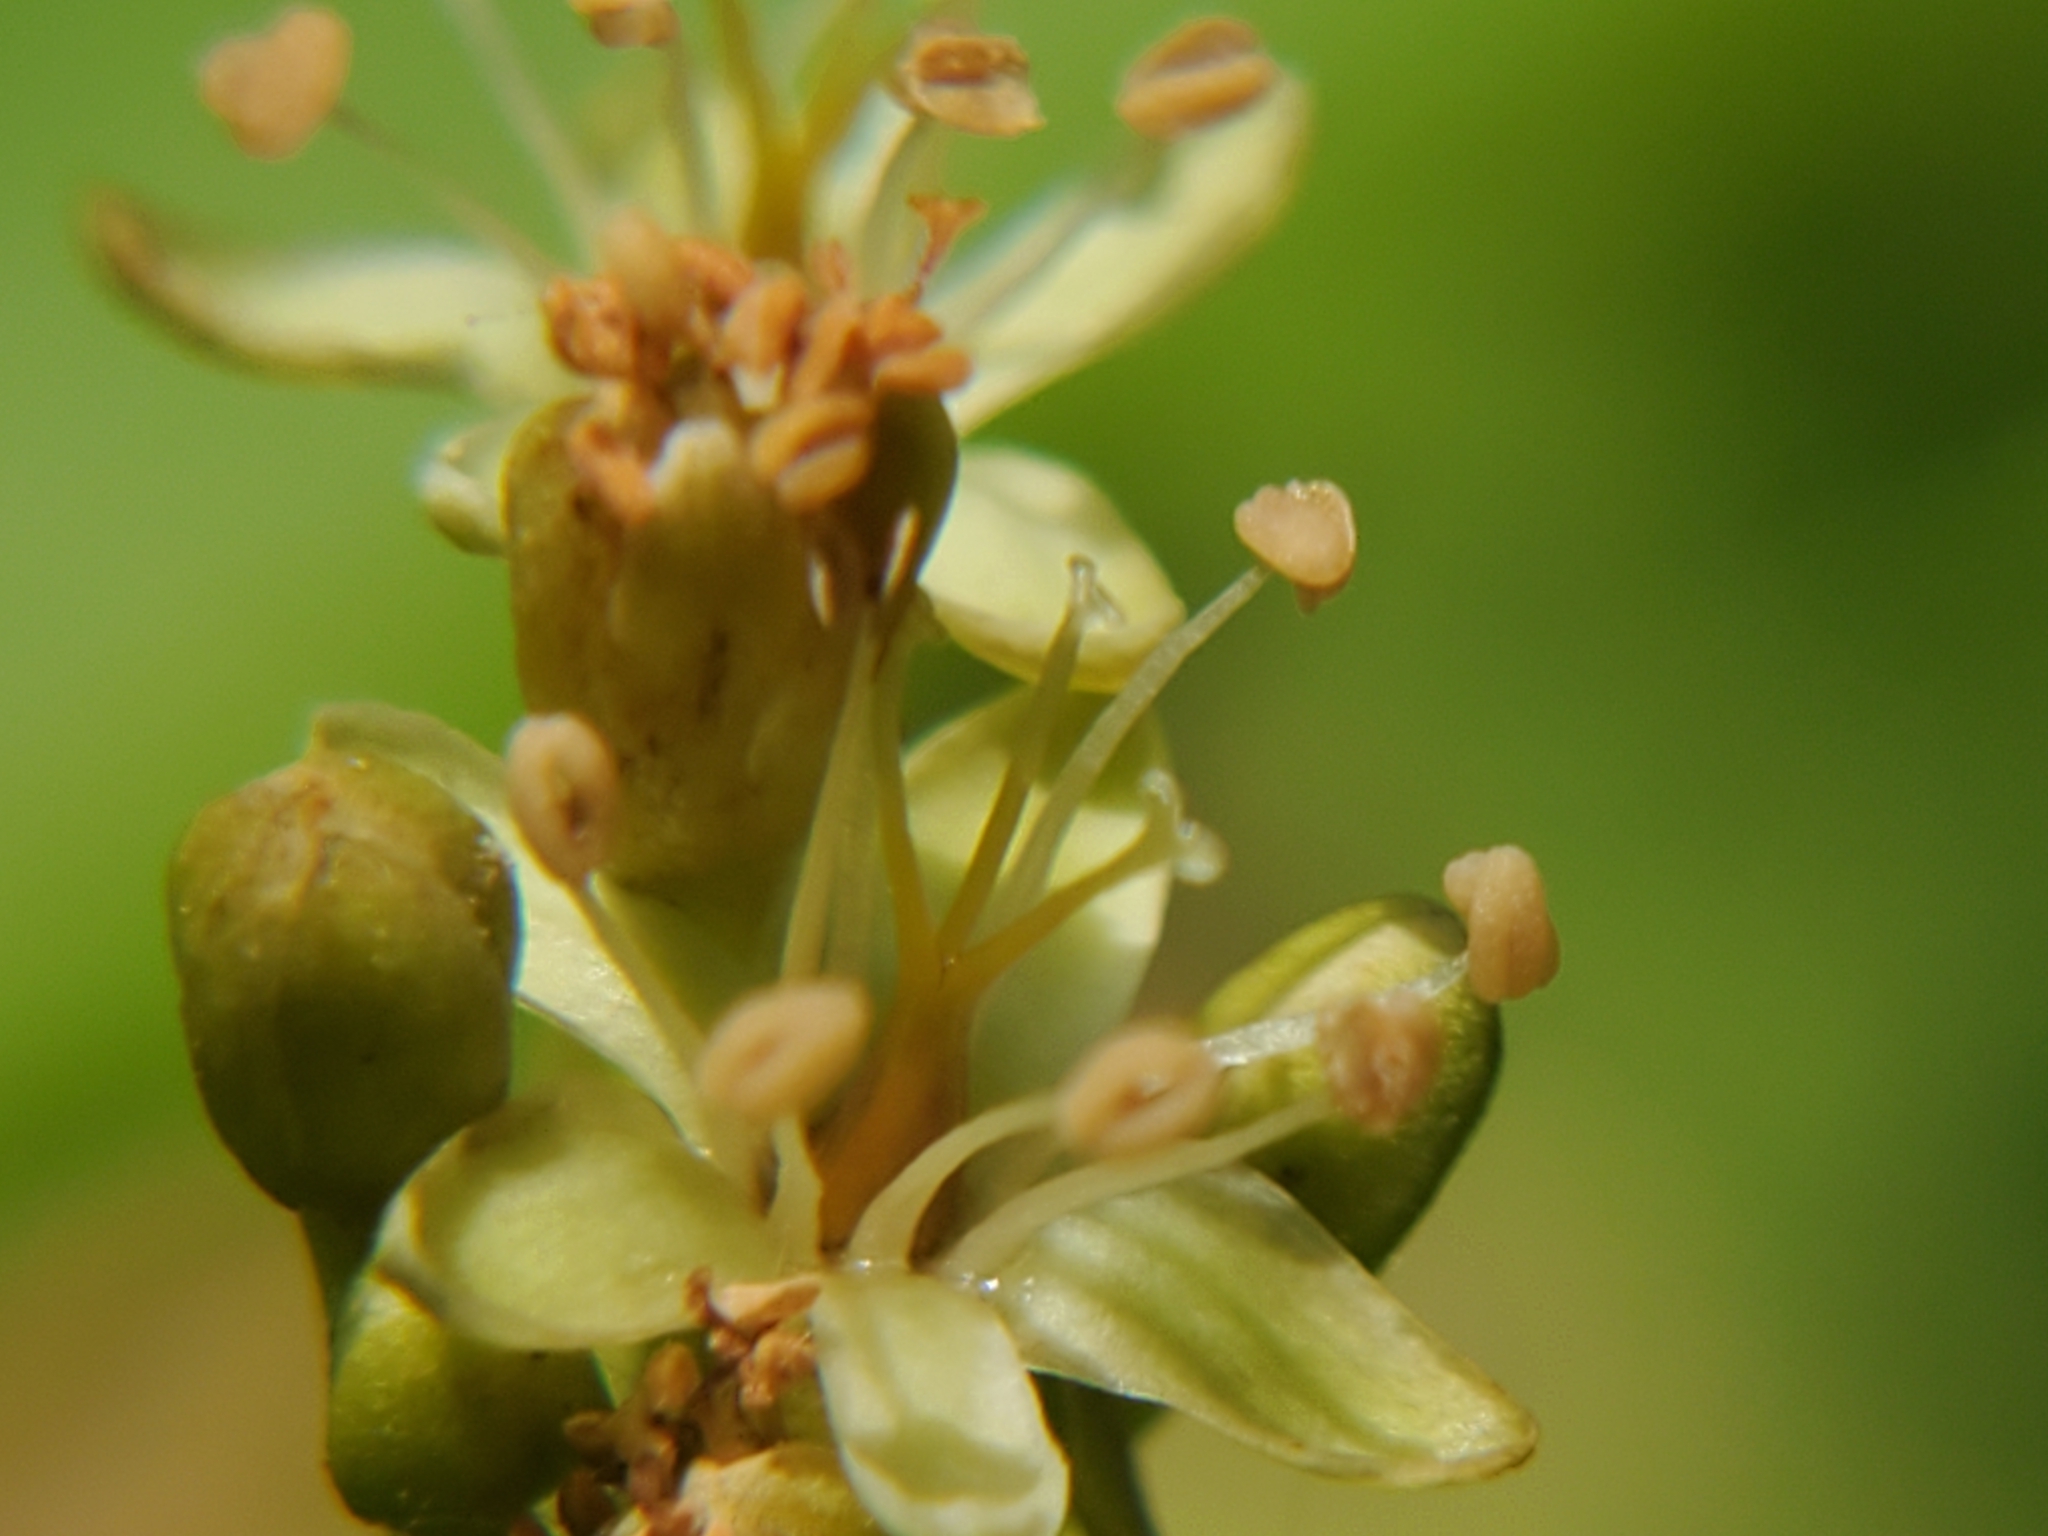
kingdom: Plantae
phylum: Tracheophyta
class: Magnoliopsida
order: Caryophyllales
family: Polygonaceae
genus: Brunnichia
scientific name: Brunnichia ovata
